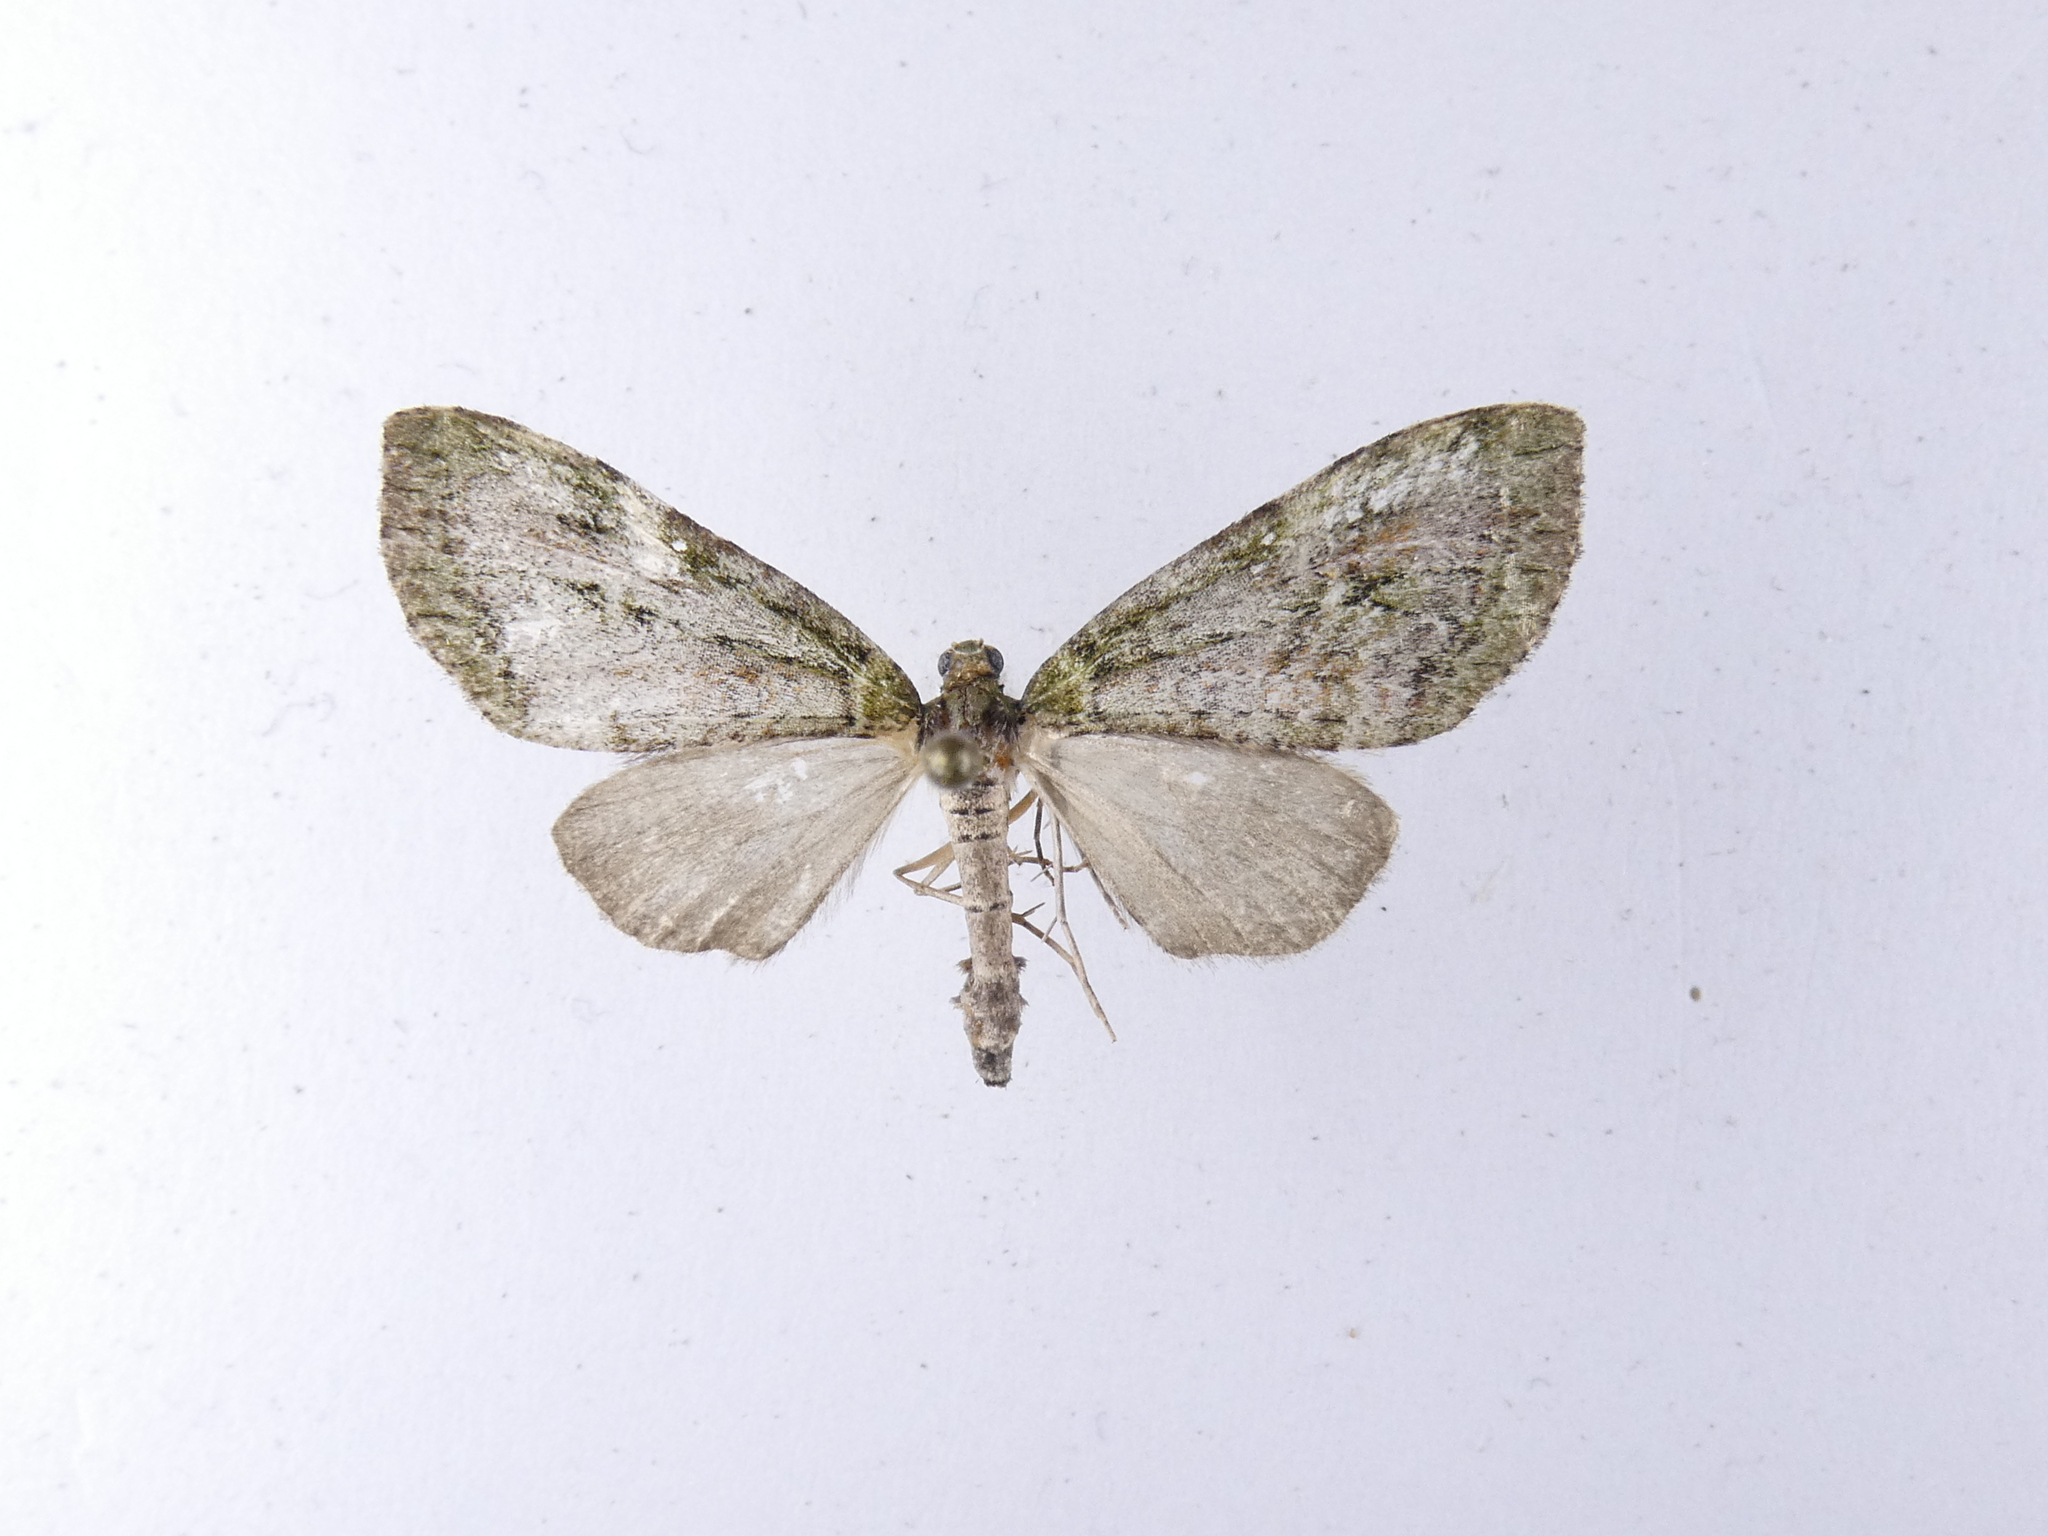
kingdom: Animalia
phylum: Arthropoda
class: Insecta
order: Lepidoptera
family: Geometridae
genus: Tatosoma
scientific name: Tatosoma topea
